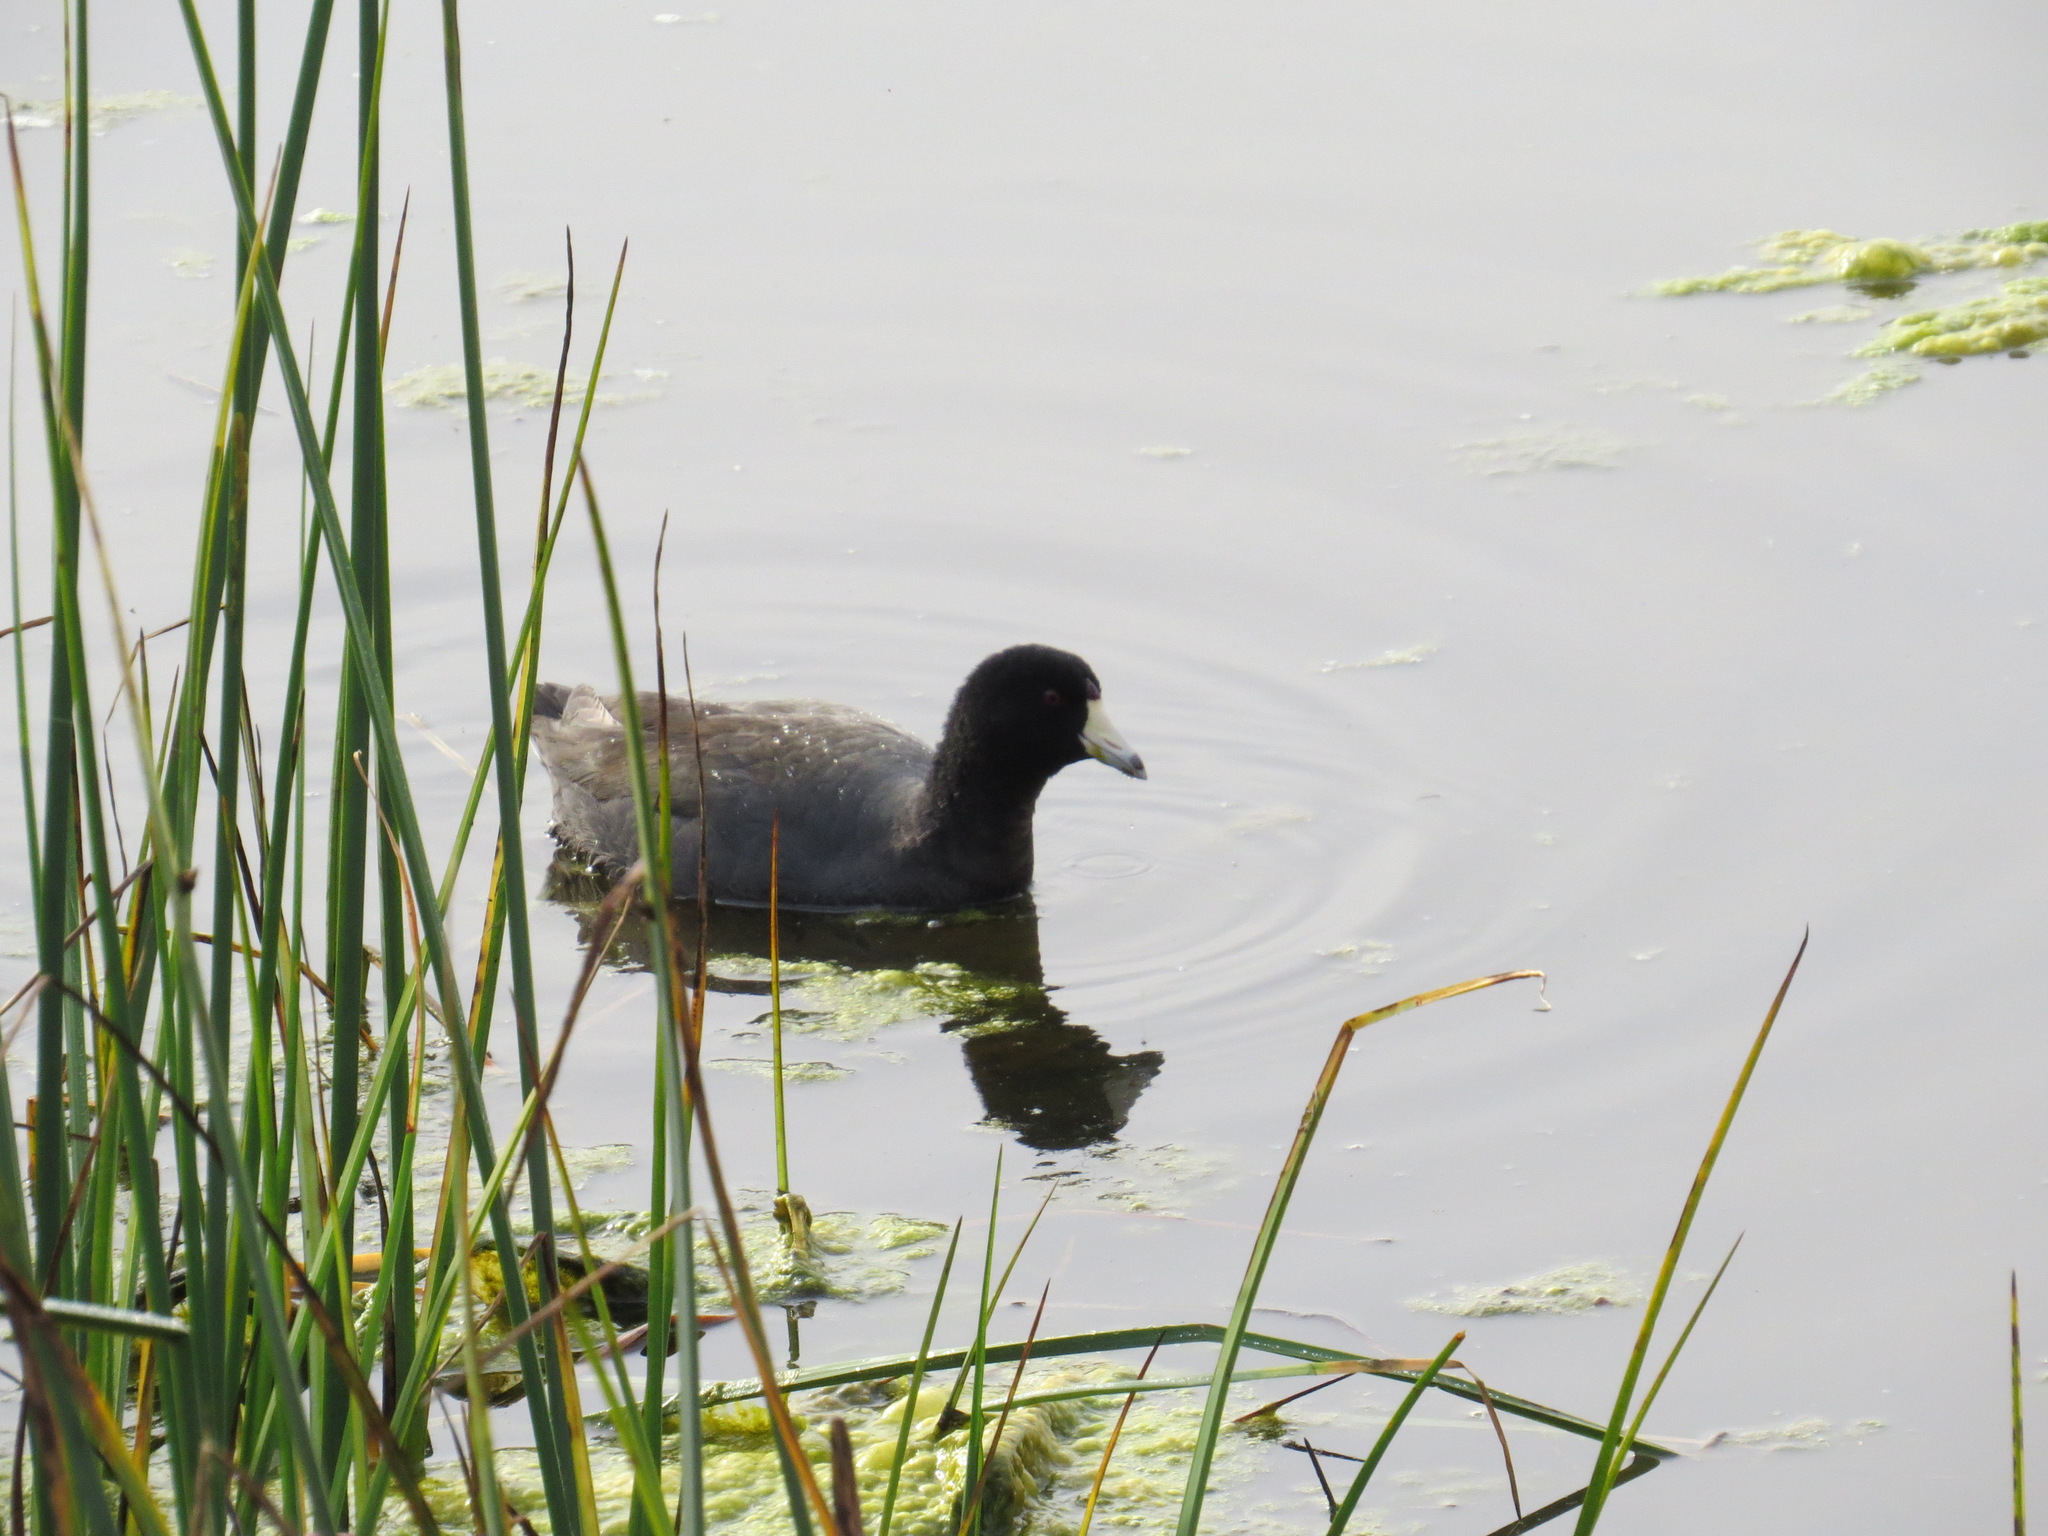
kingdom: Animalia
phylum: Chordata
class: Aves
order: Gruiformes
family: Rallidae
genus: Fulica
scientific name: Fulica americana
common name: American coot
